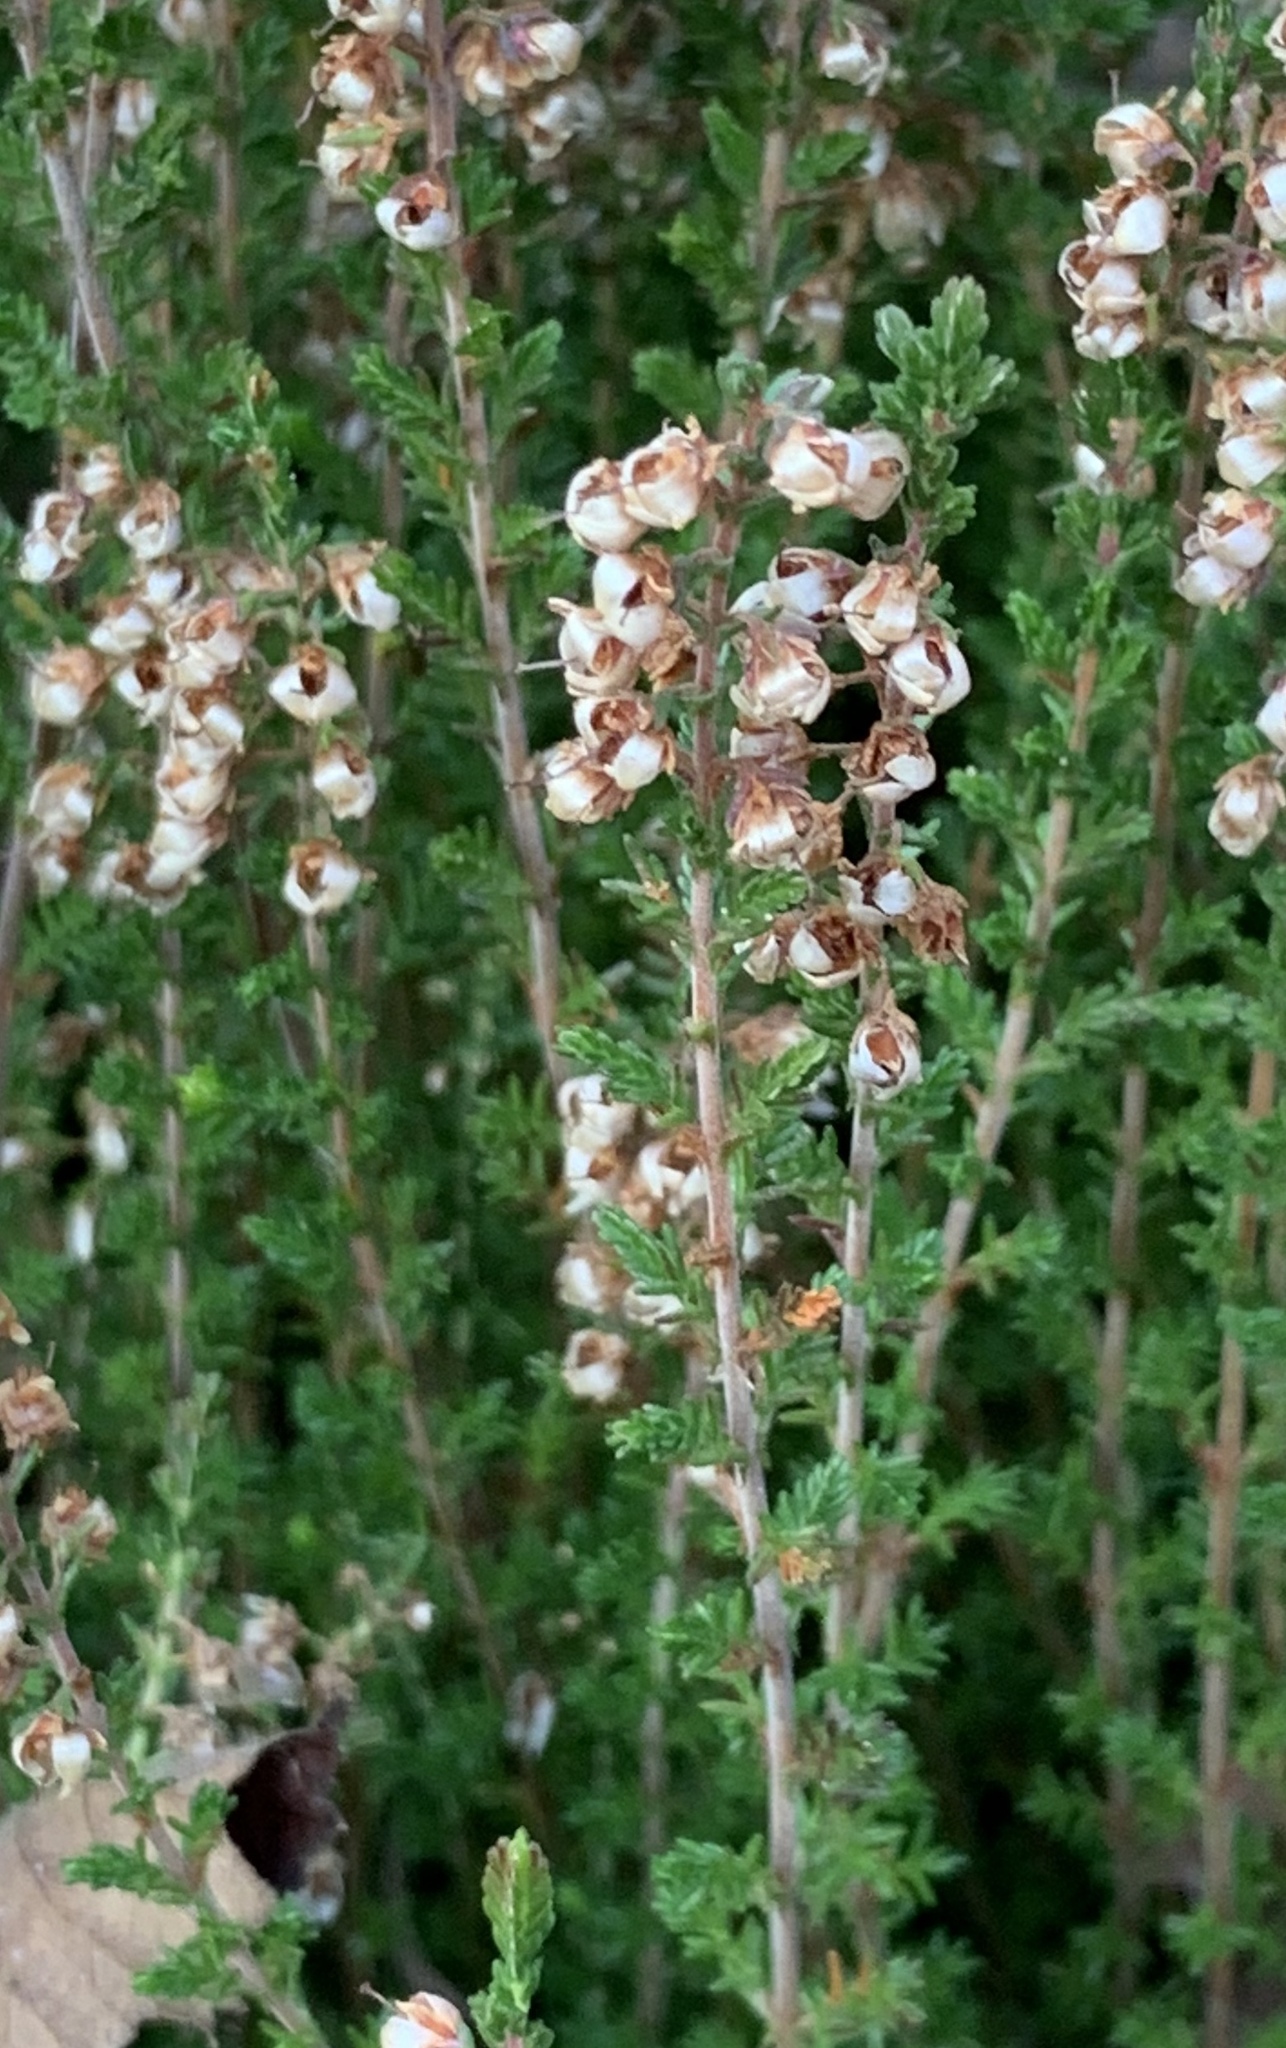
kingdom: Plantae
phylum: Tracheophyta
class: Magnoliopsida
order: Ericales
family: Ericaceae
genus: Calluna
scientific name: Calluna vulgaris
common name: Heather
